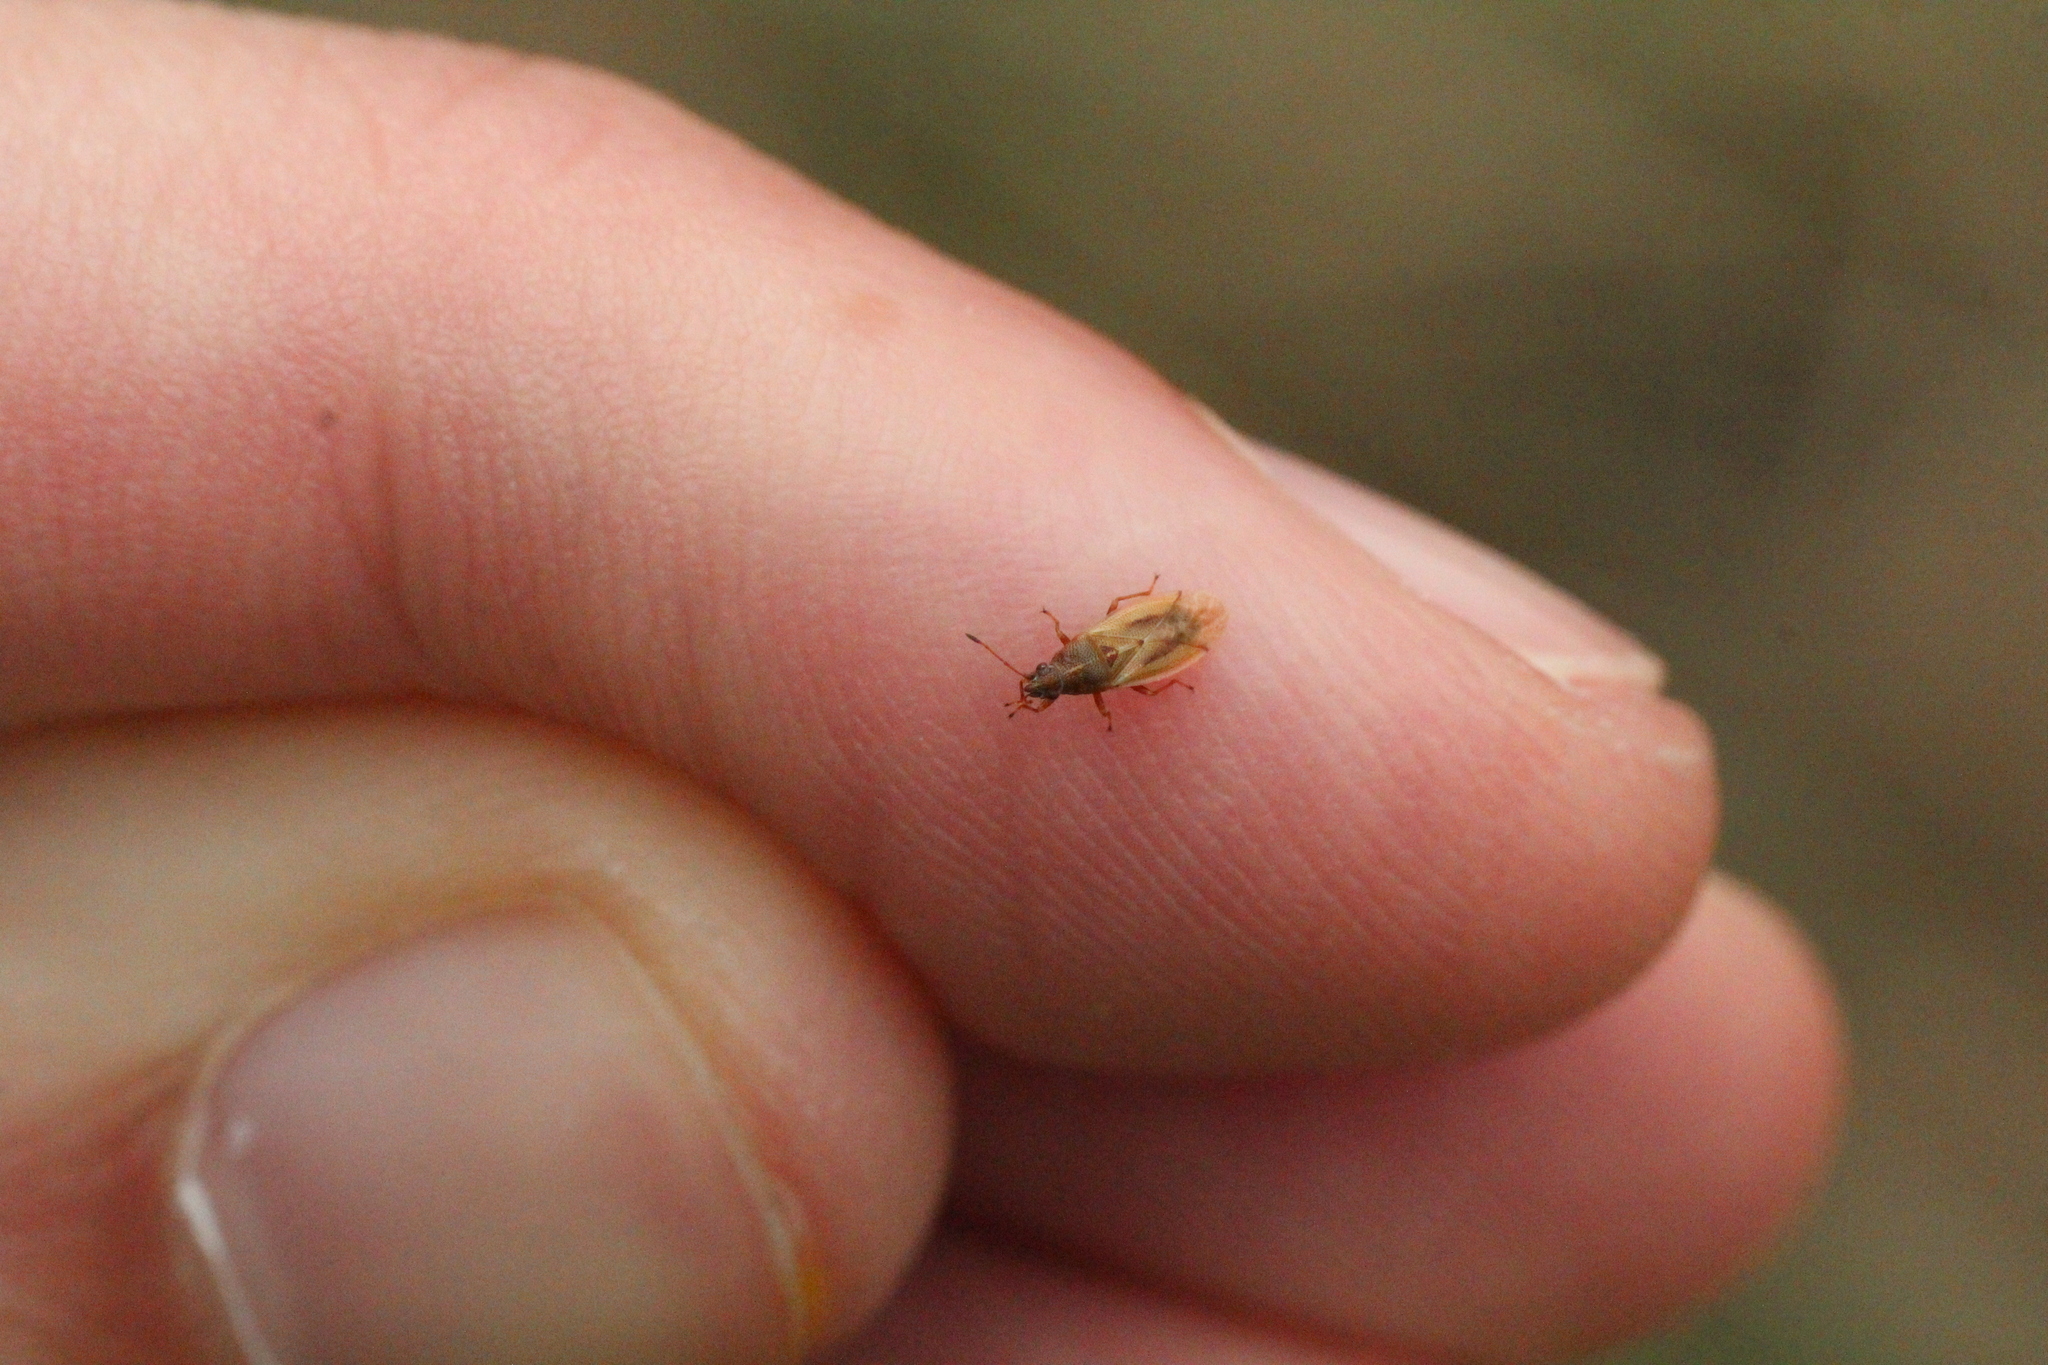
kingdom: Animalia
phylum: Arthropoda
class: Insecta
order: Hemiptera
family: Cymidae
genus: Cymus
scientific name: Cymus glandicolor
